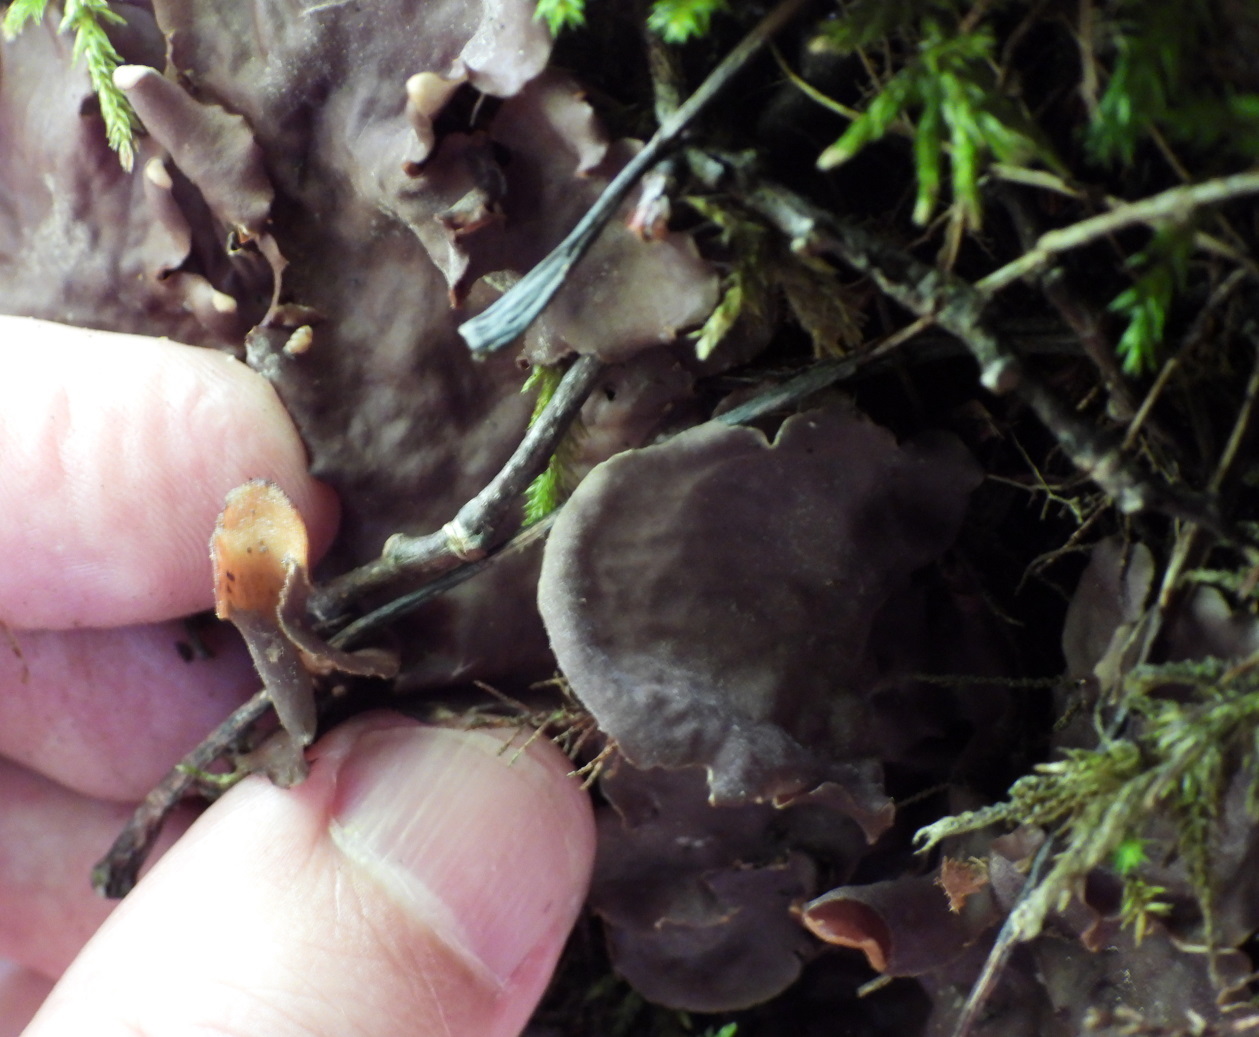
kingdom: Fungi
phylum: Ascomycota
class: Lecanoromycetes
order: Peltigerales
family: Peltigeraceae
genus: Peltigera
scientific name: Peltigera praetextata
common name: Scaly dog-lichen
